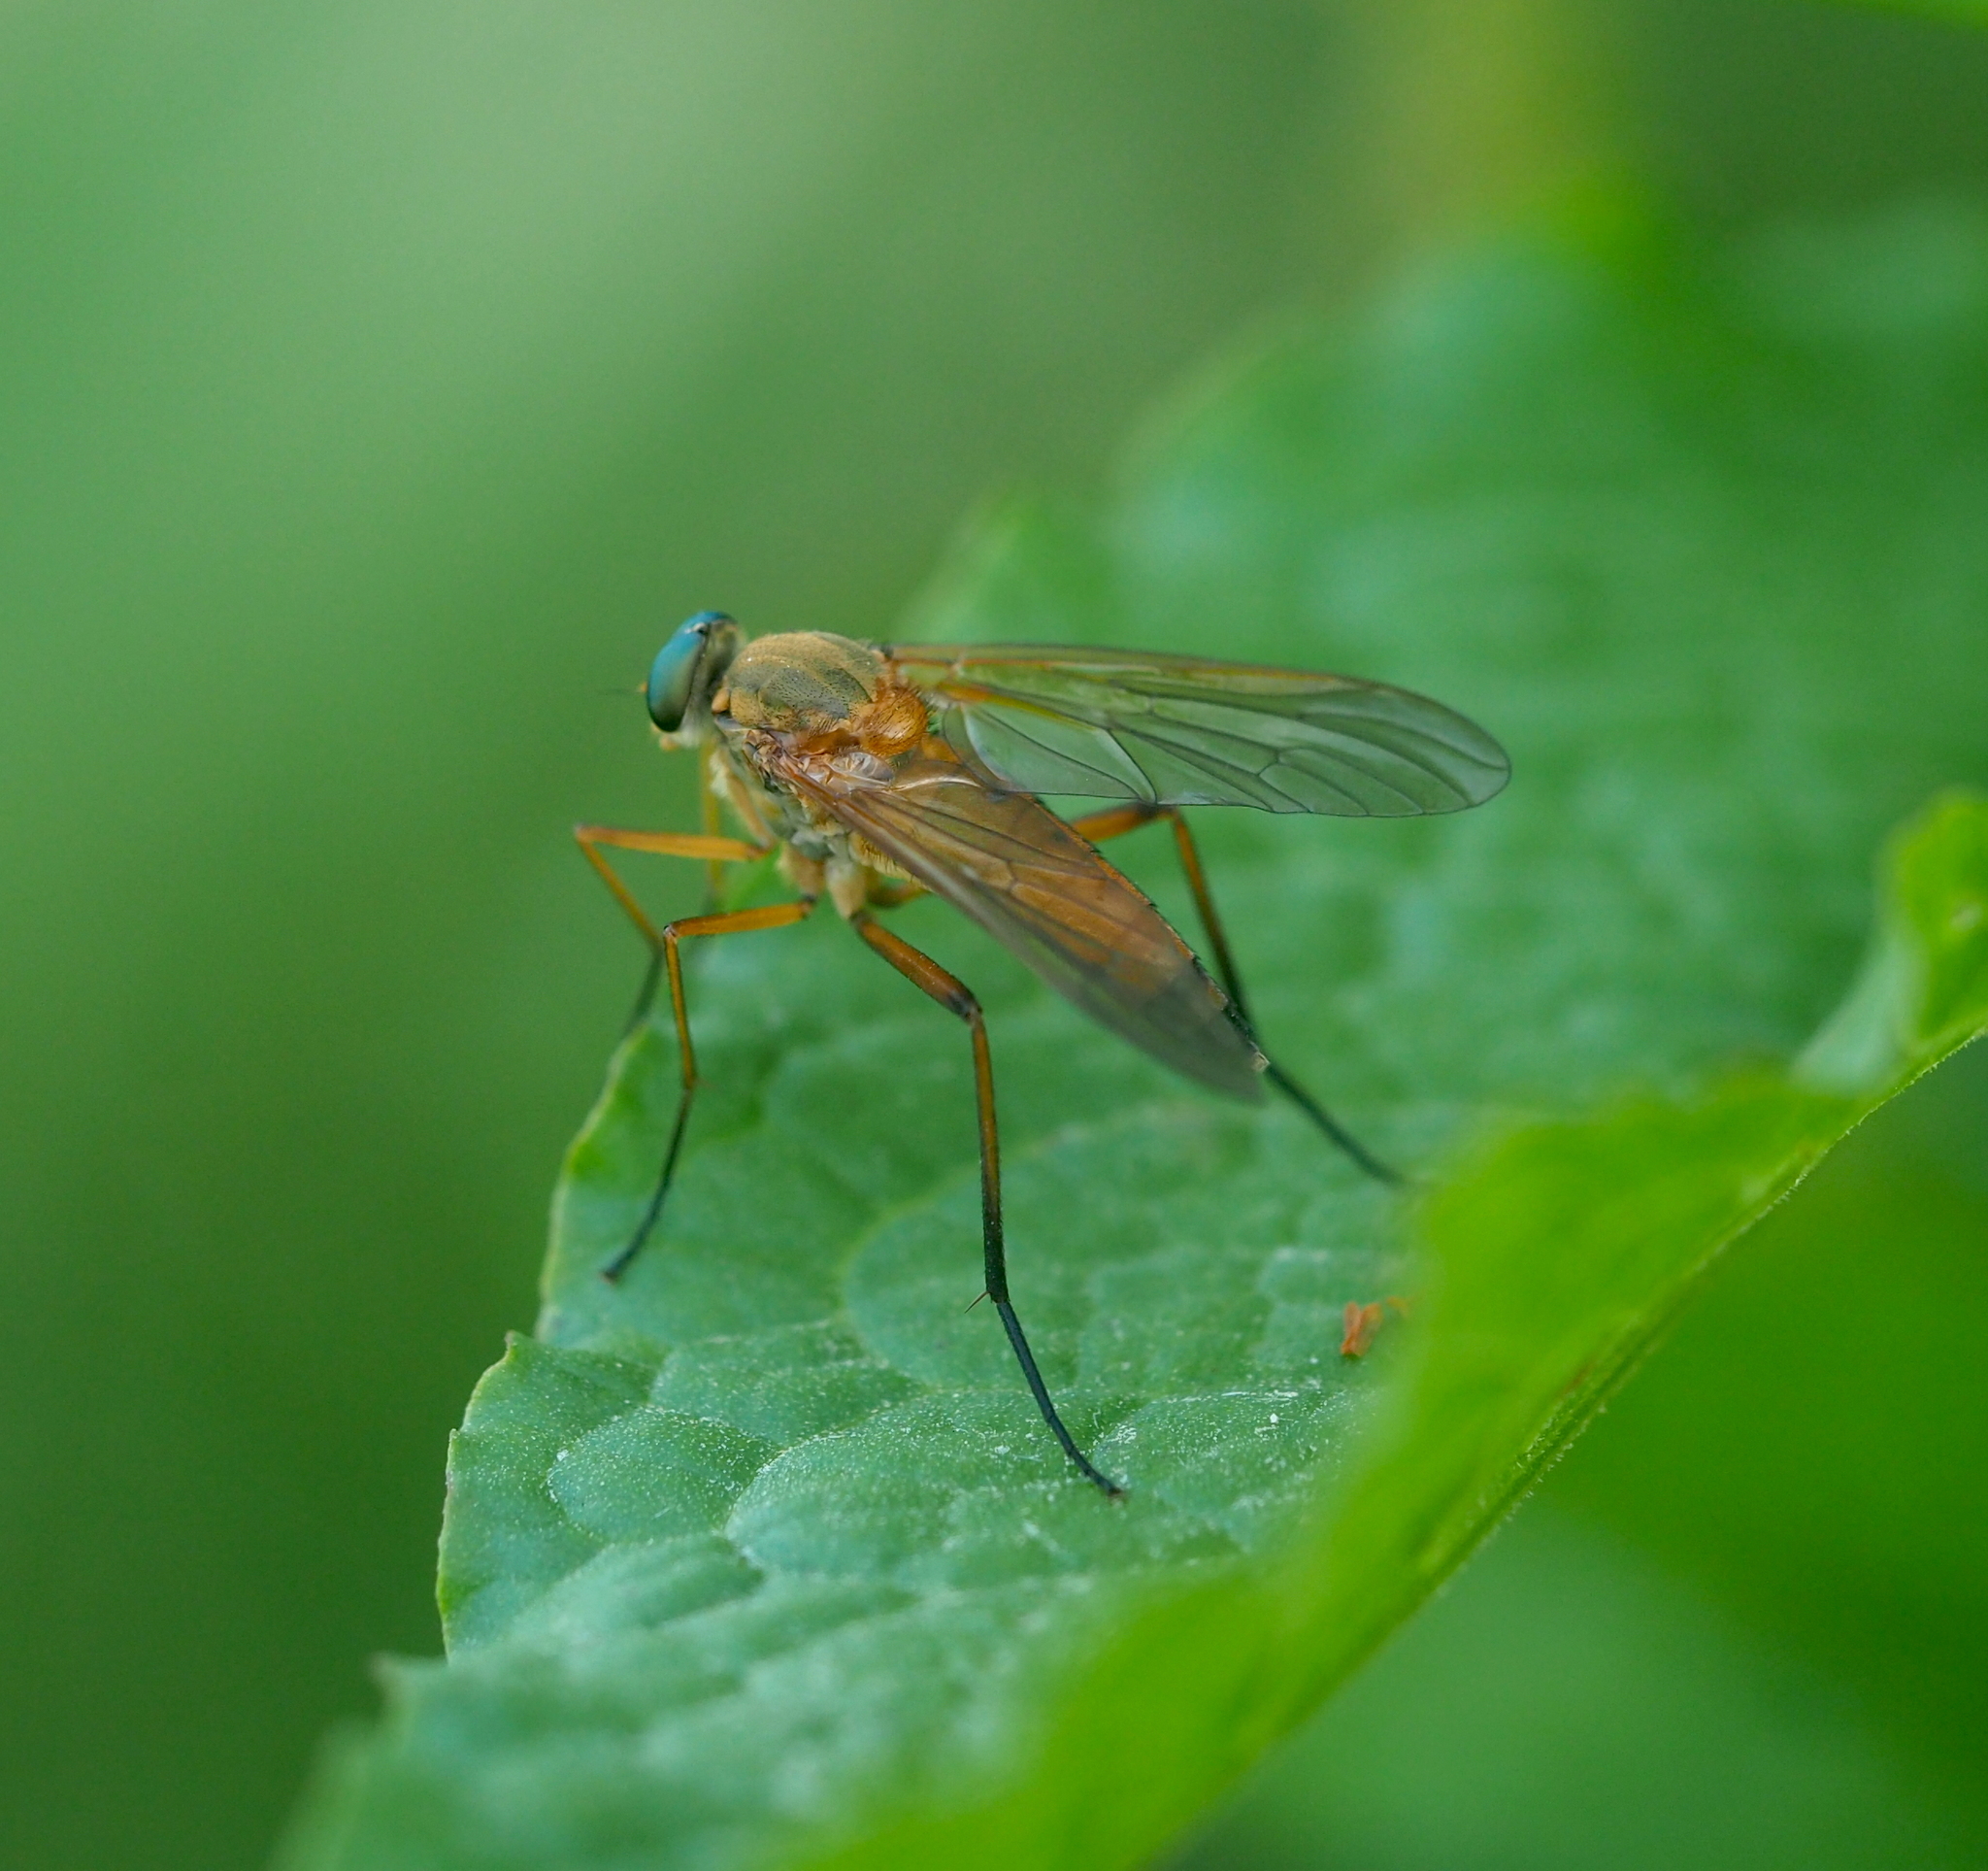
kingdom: Animalia
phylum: Arthropoda
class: Insecta
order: Diptera
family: Rhagionidae
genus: Rhagio
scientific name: Rhagio tringaria
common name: Marsh snipefly
